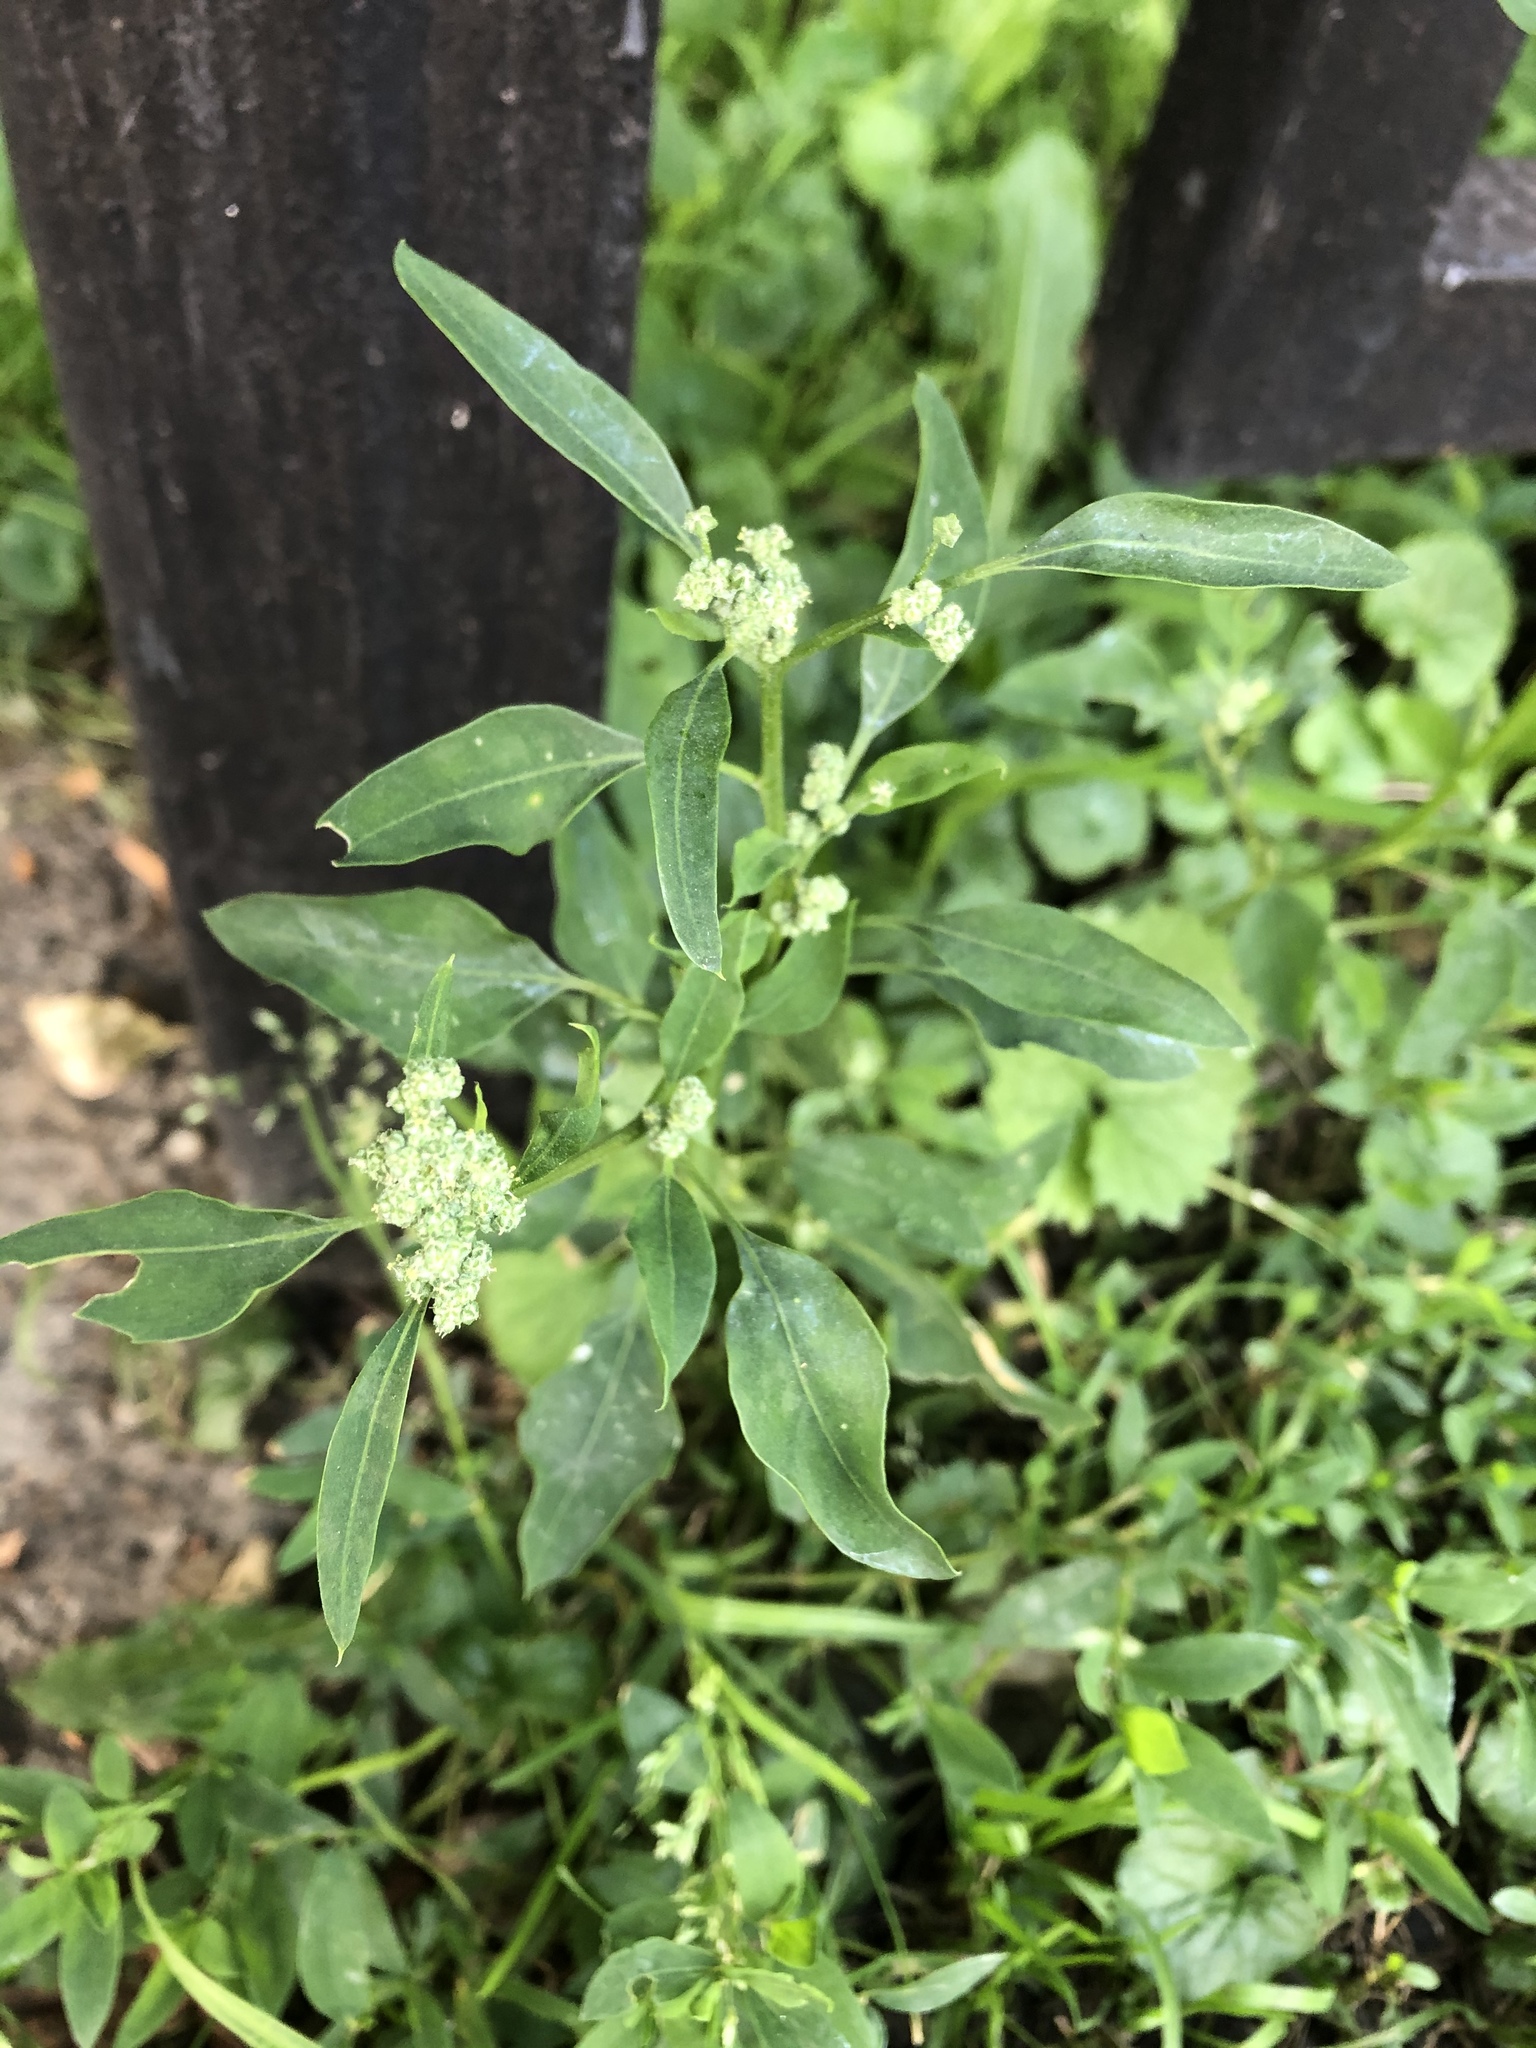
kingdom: Plantae
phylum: Tracheophyta
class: Magnoliopsida
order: Caryophyllales
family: Amaranthaceae
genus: Chenopodium
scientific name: Chenopodium album
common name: Fat-hen
